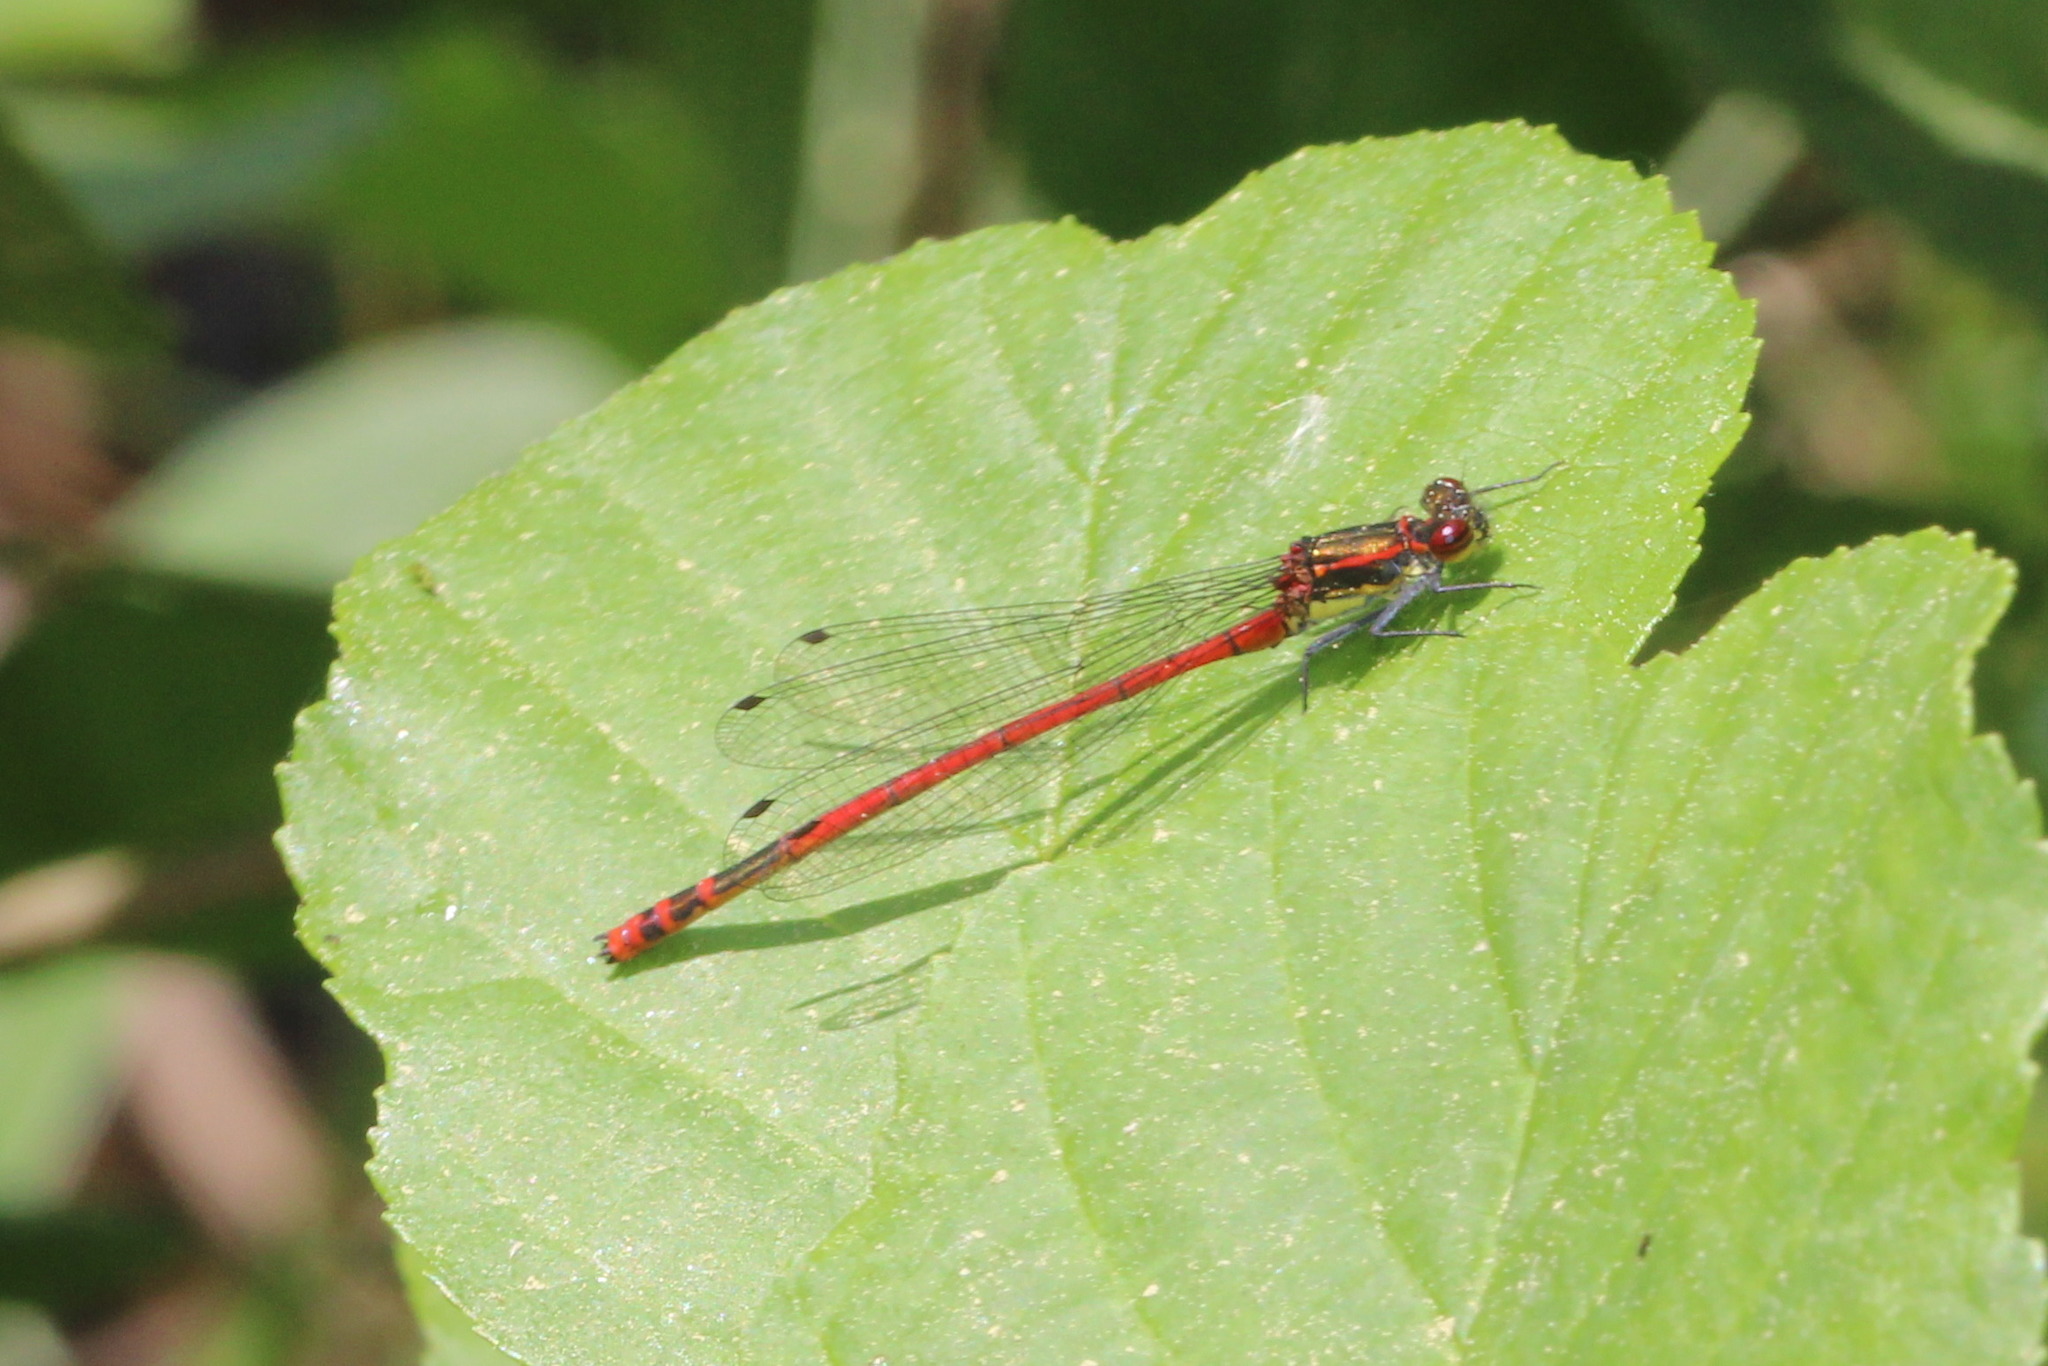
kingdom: Animalia
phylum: Arthropoda
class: Insecta
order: Odonata
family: Coenagrionidae
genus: Pyrrhosoma
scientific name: Pyrrhosoma nymphula
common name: Large red damsel
